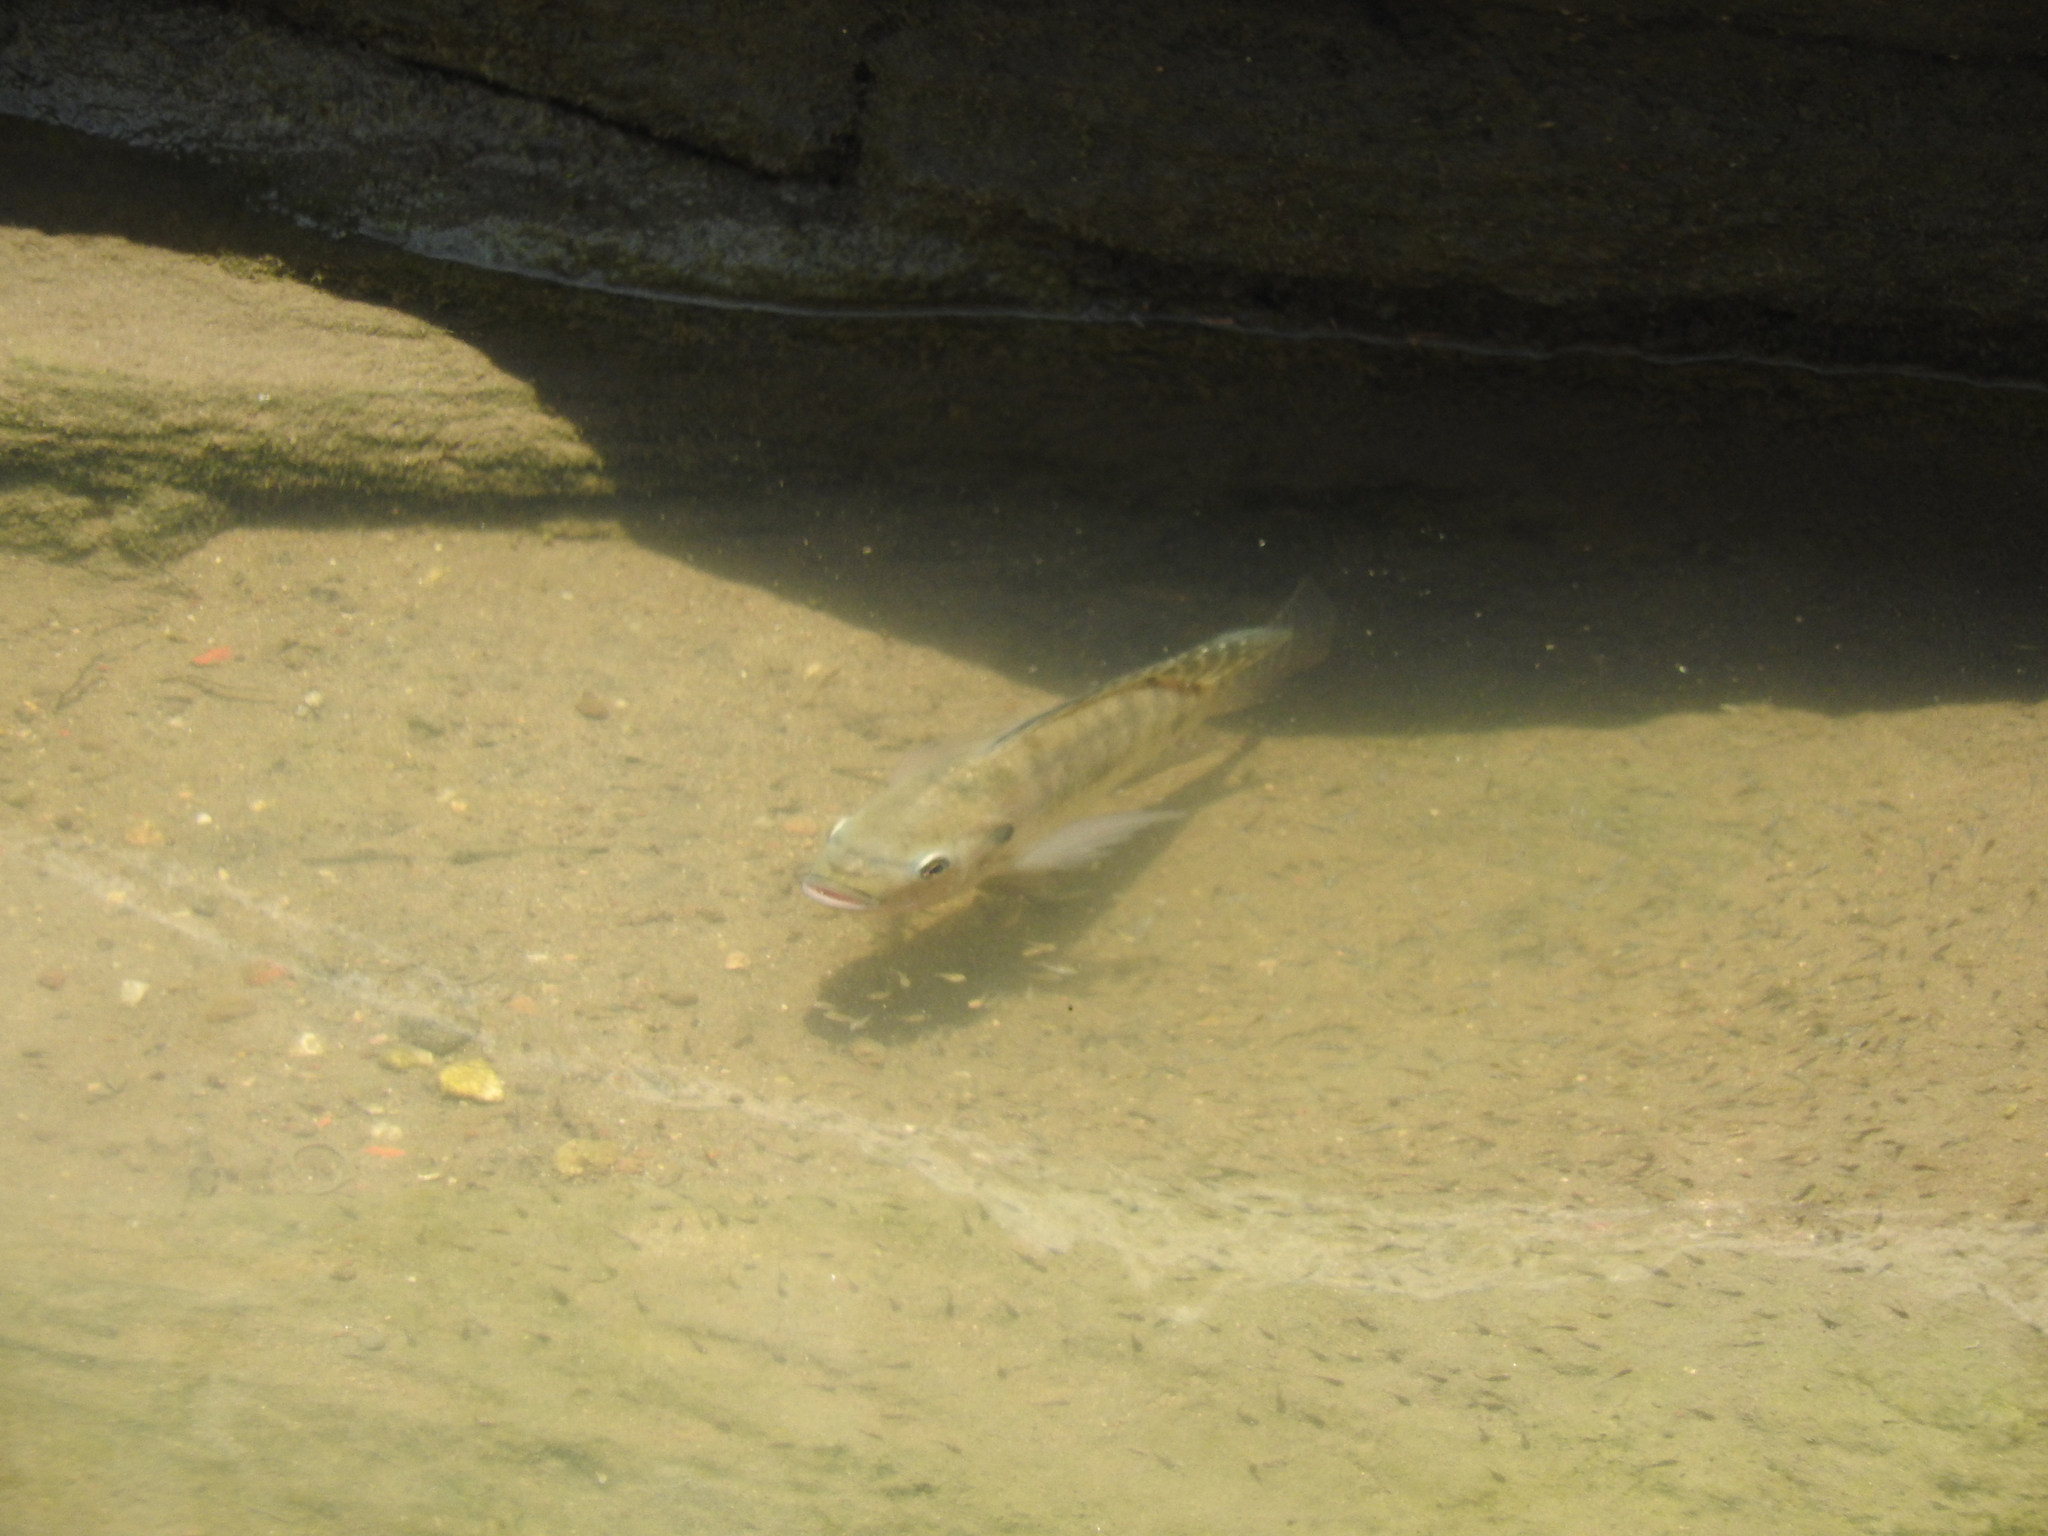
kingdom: Animalia
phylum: Chordata
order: Perciformes
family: Cichlidae
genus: Oreochromis
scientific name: Oreochromis niloticus
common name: Nile tilapia
